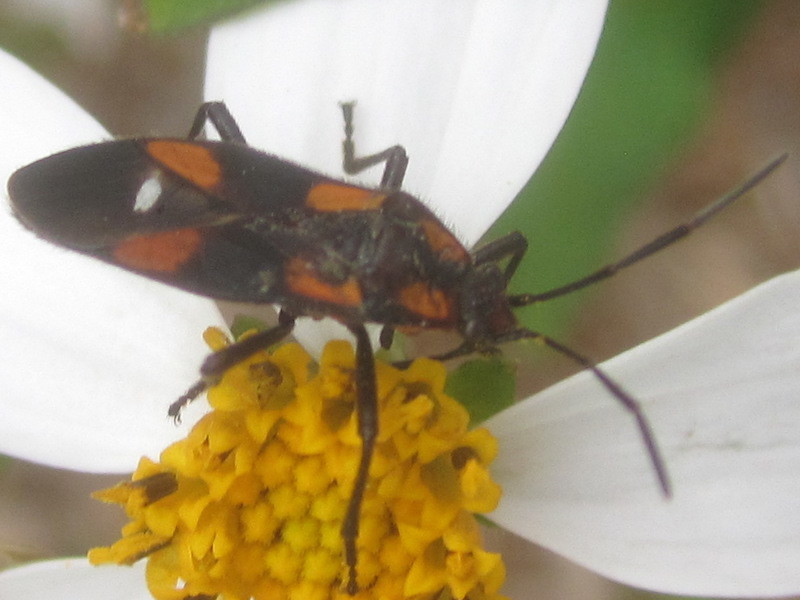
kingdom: Animalia
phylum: Arthropoda
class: Insecta
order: Hemiptera
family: Lygaeidae
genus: Oncopeltus
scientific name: Oncopeltus sexmaculatus
